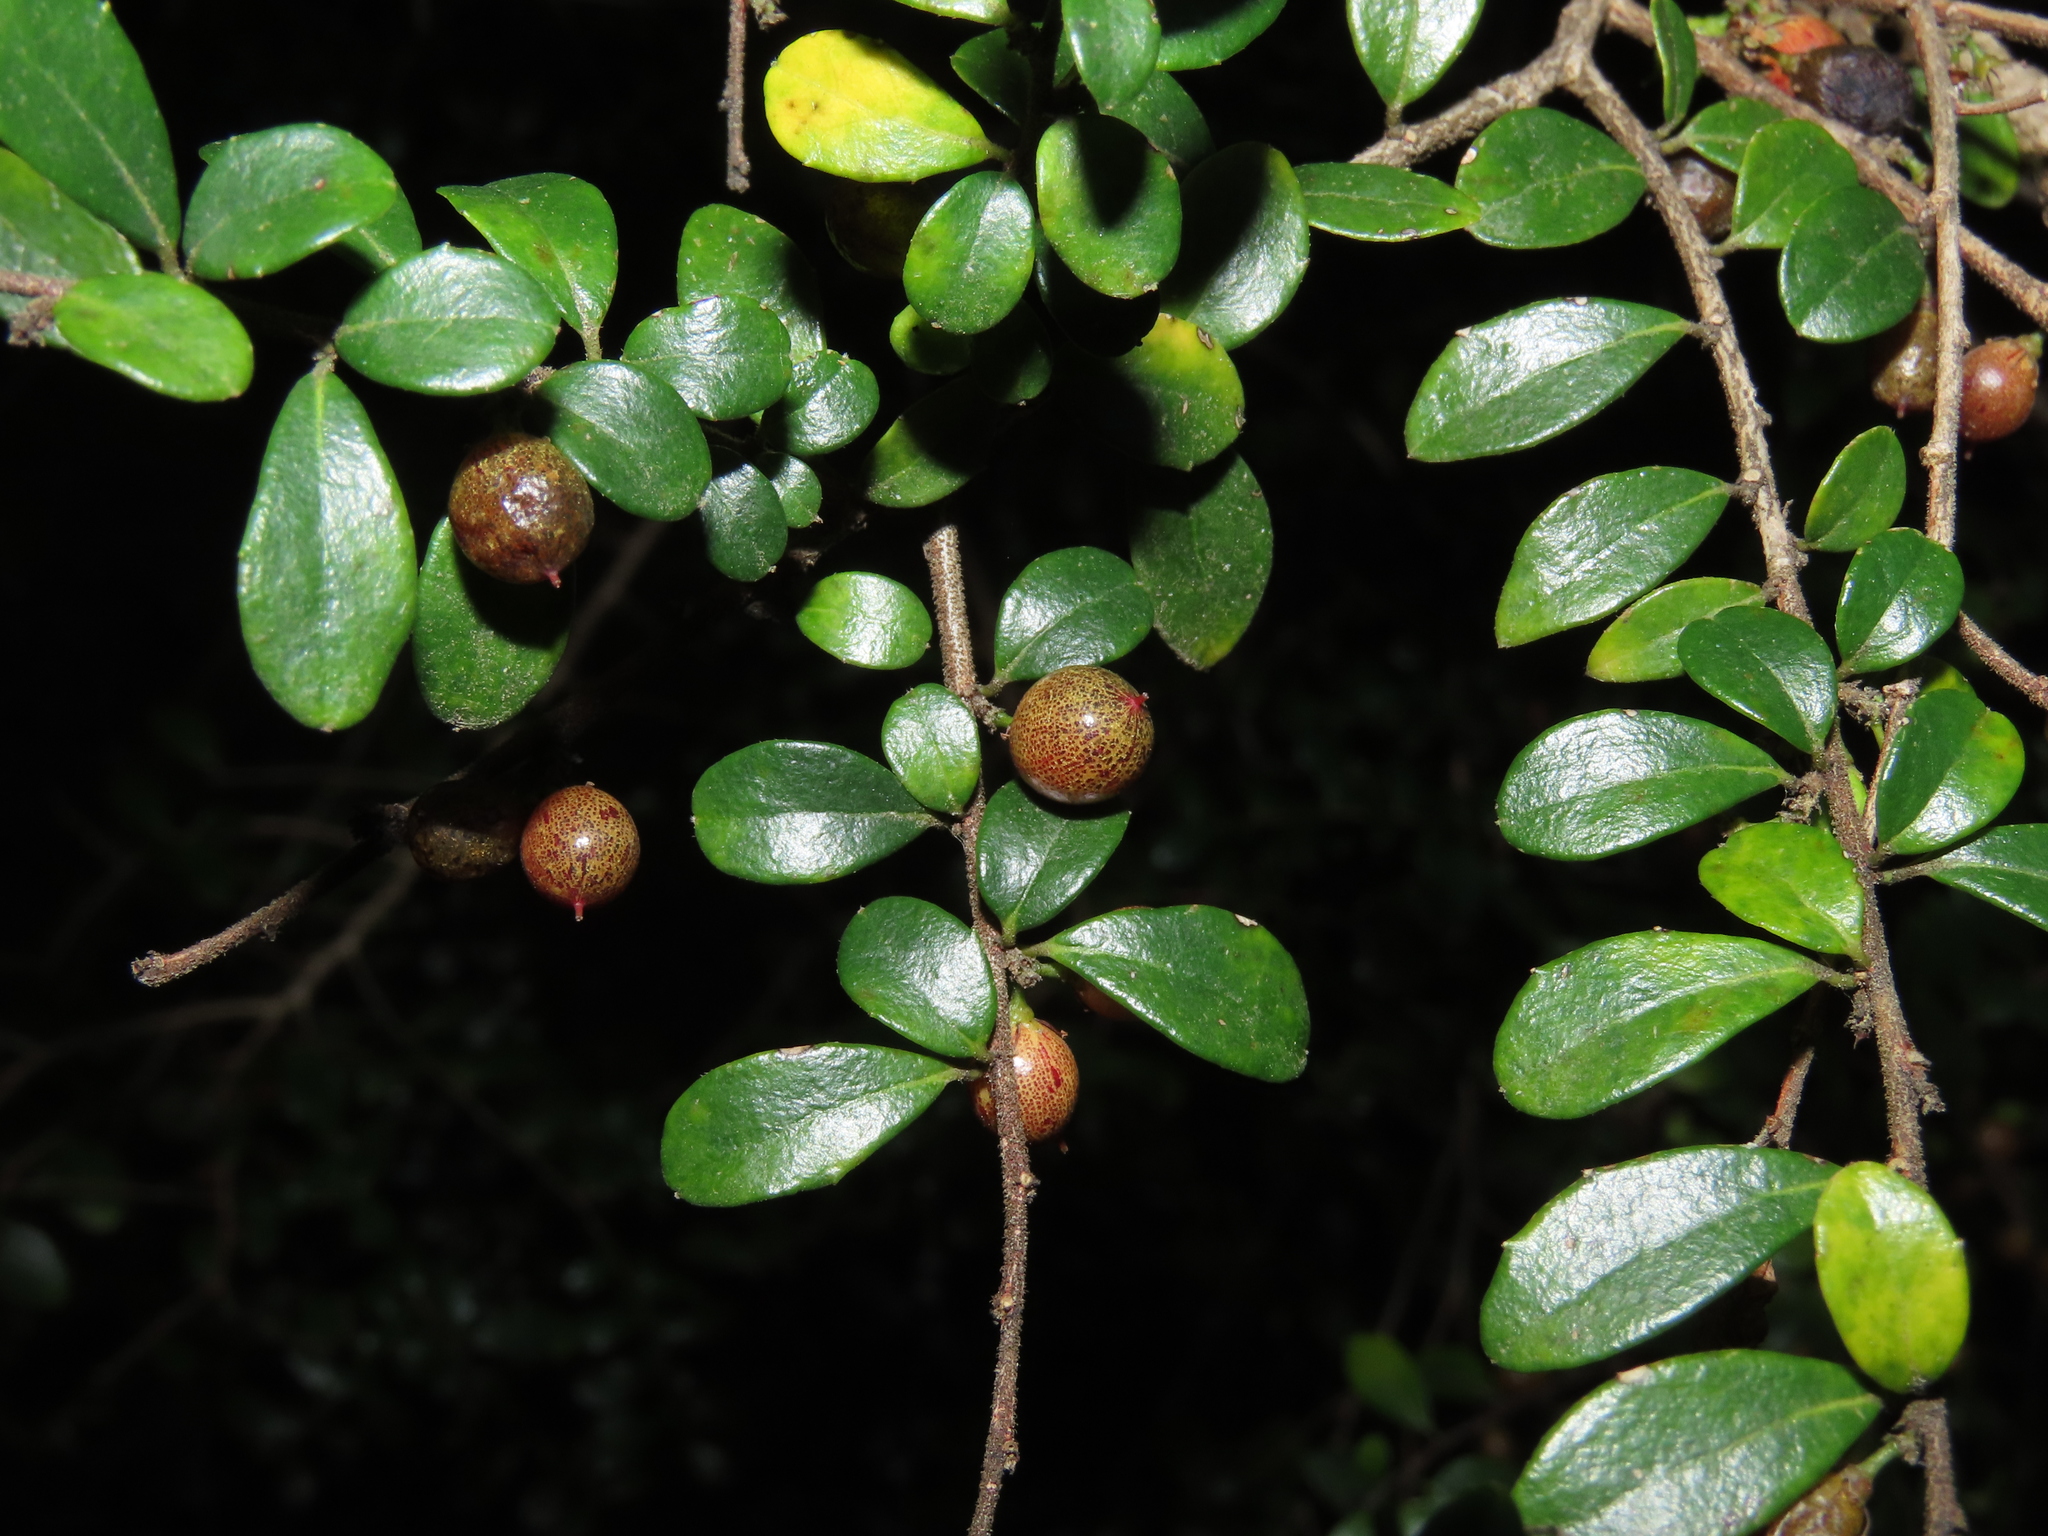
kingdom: Plantae
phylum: Tracheophyta
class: Magnoliopsida
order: Malpighiales
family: Salicaceae
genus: Azara
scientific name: Azara microphylla
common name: Box-leaf azara
